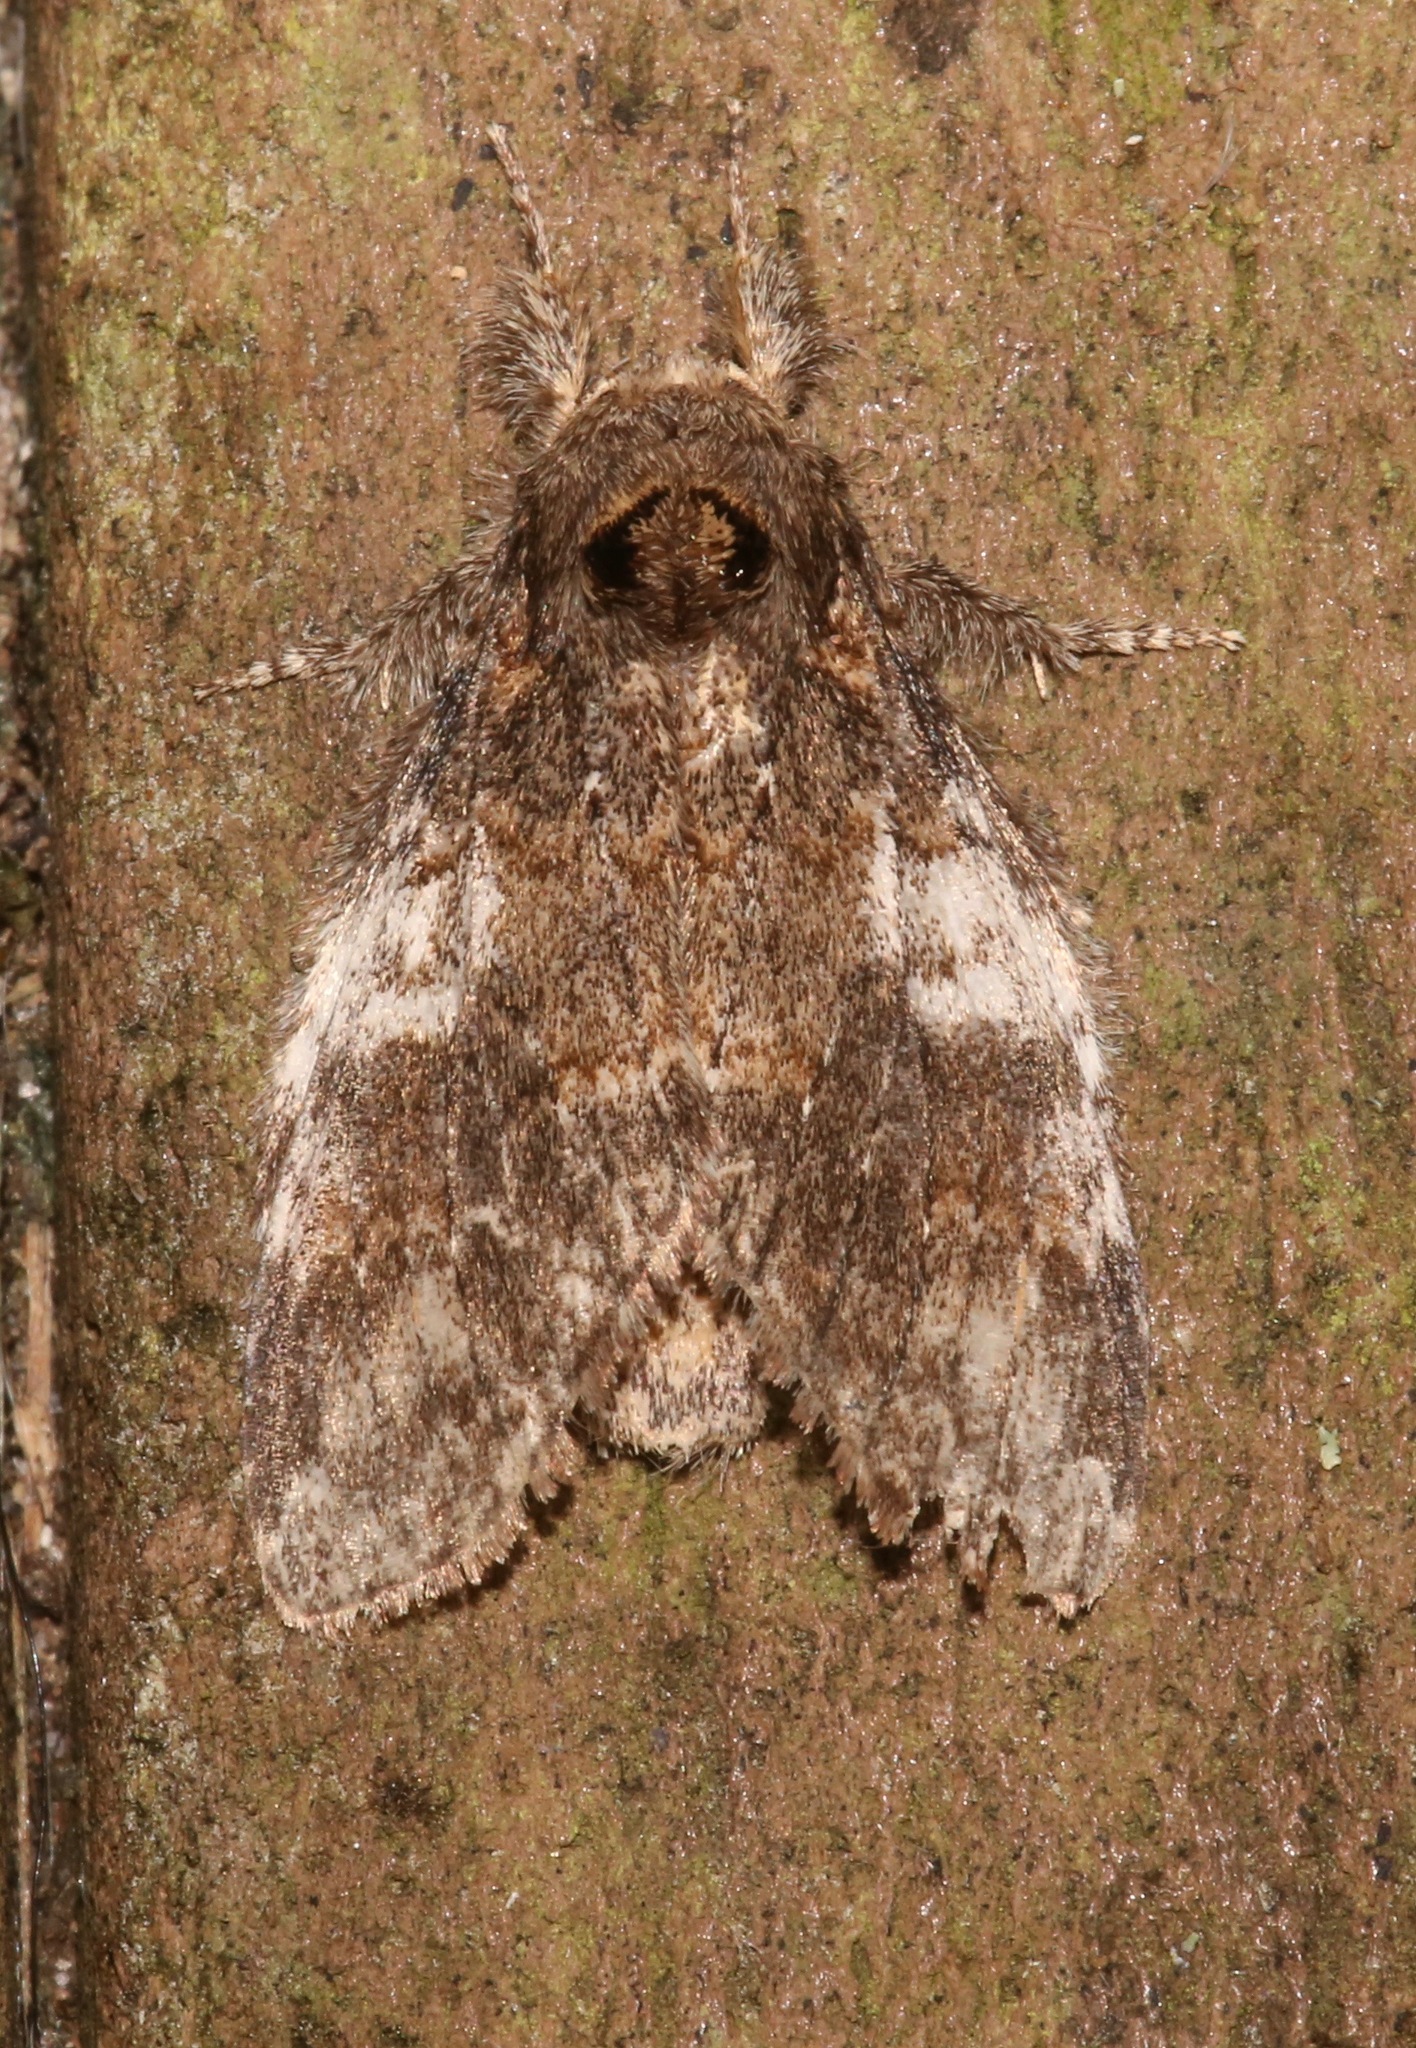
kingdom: Animalia
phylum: Arthropoda
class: Insecta
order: Lepidoptera
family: Notodontidae
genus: Peridea
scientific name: Peridea angulosa
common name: Angulose prominent
